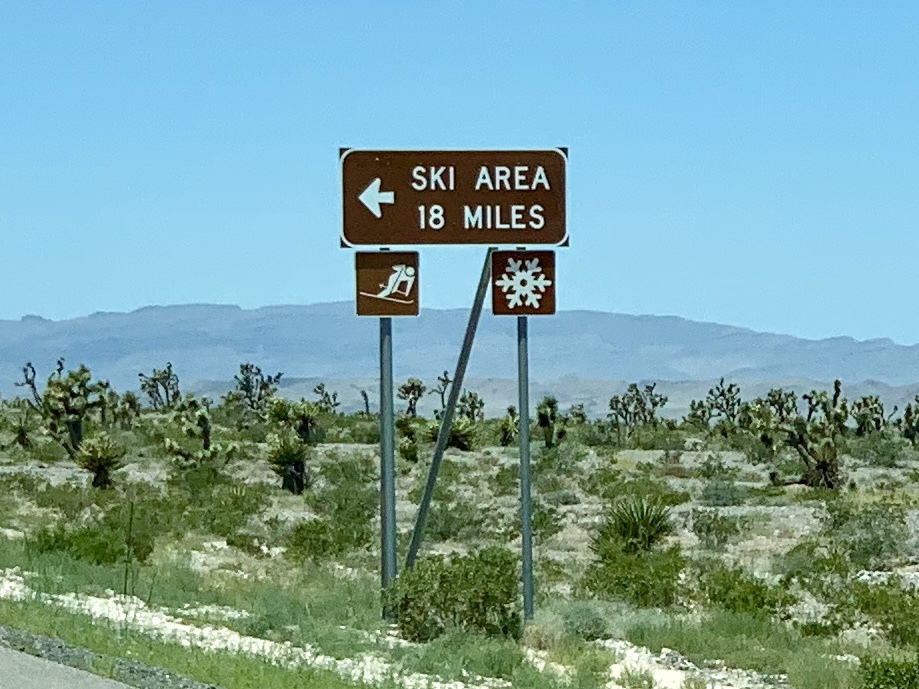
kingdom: Plantae
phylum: Tracheophyta
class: Magnoliopsida
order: Zygophyllales
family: Zygophyllaceae
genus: Larrea
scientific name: Larrea tridentata
